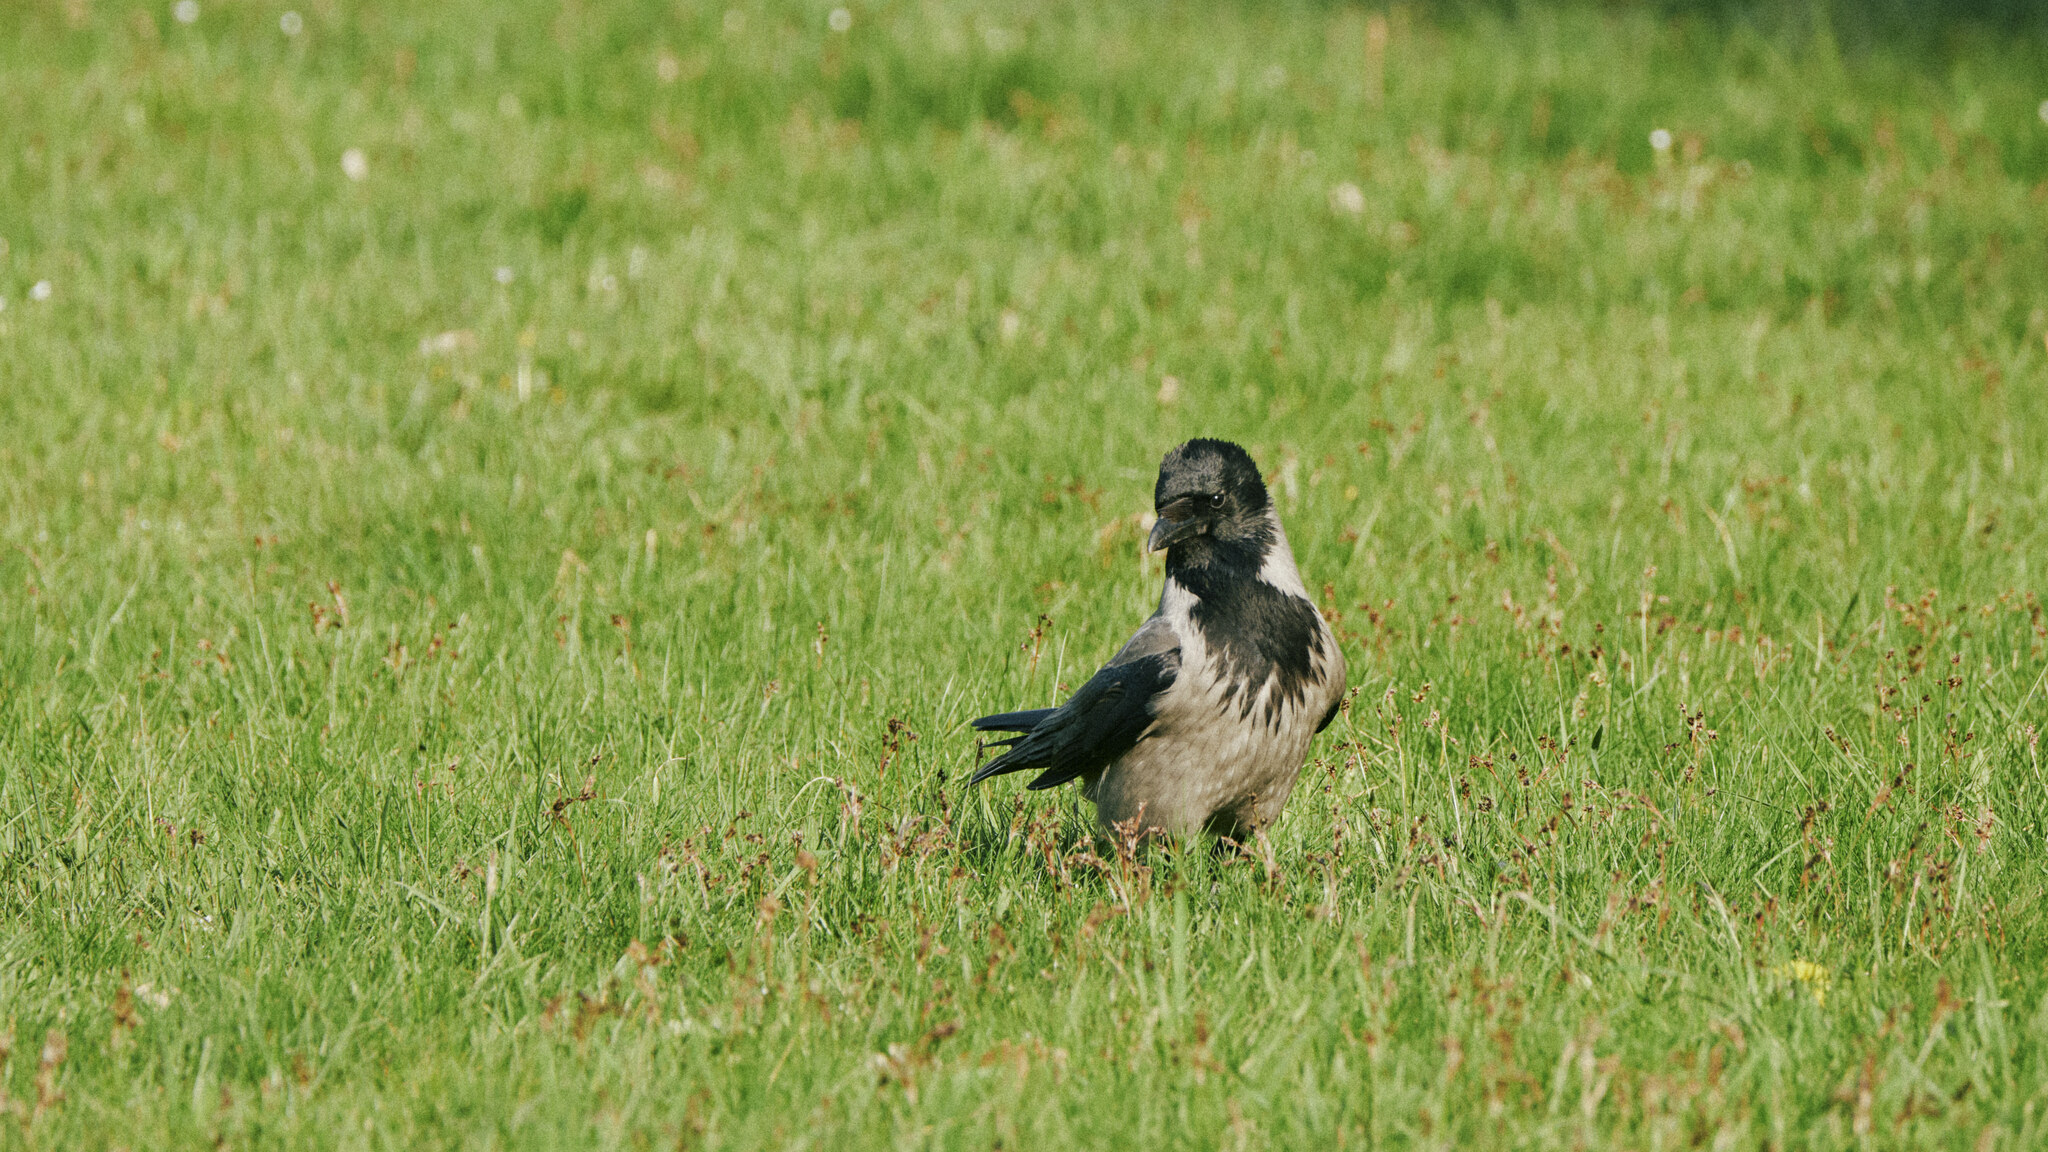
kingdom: Animalia
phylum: Chordata
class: Aves
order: Passeriformes
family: Corvidae
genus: Corvus
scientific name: Corvus cornix
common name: Hooded crow
